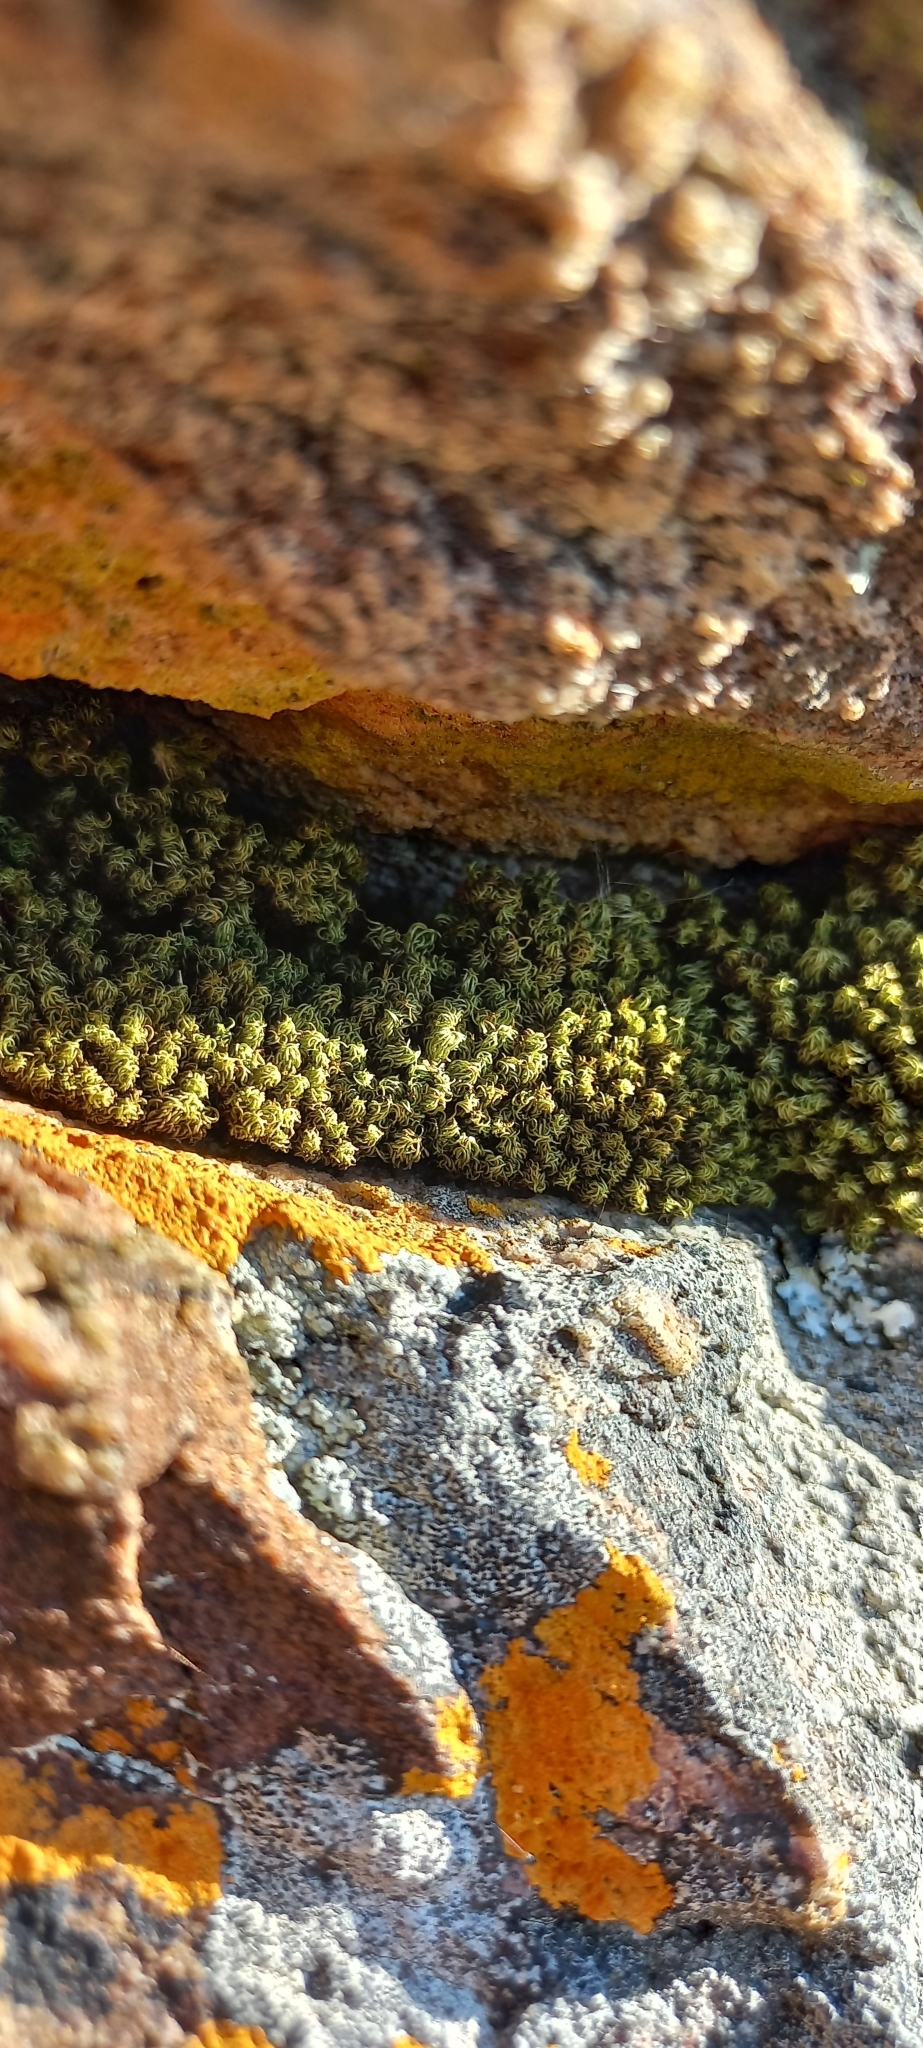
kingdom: Plantae
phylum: Bryophyta
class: Bryopsida
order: Dicranales
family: Hypodontiaceae
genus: Hypodontium
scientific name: Hypodontium dregei
